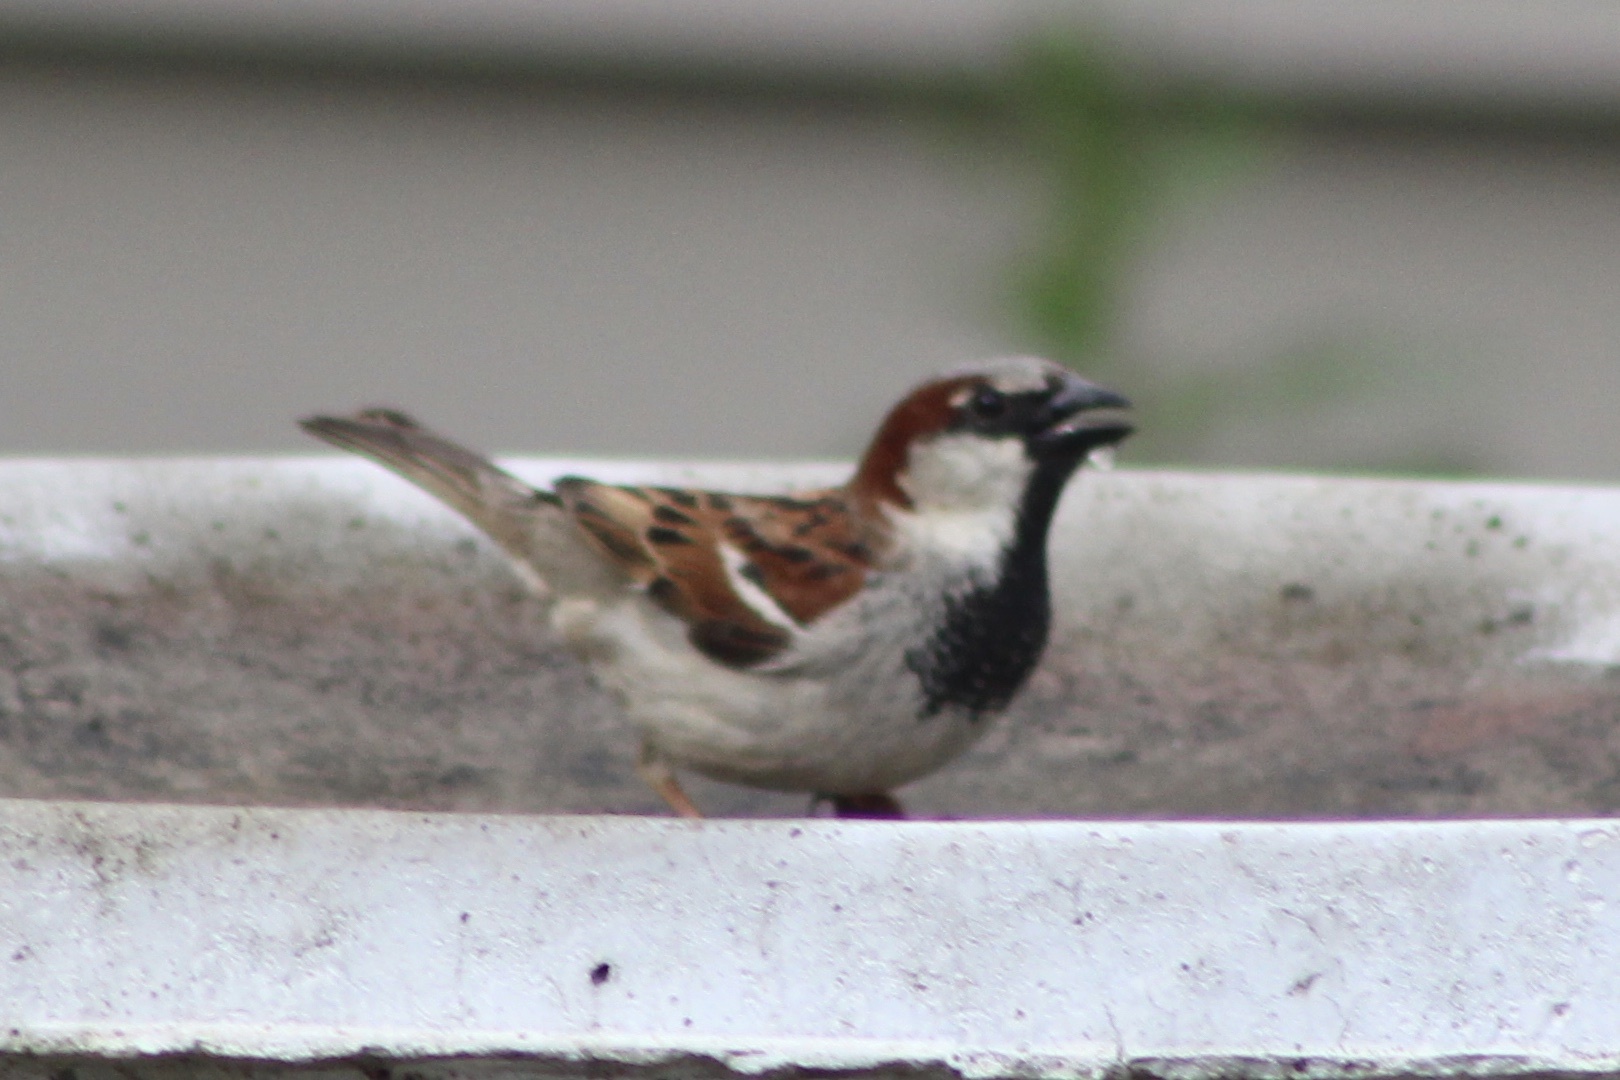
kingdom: Animalia
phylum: Chordata
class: Aves
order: Passeriformes
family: Passeridae
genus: Passer
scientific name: Passer domesticus
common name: House sparrow
